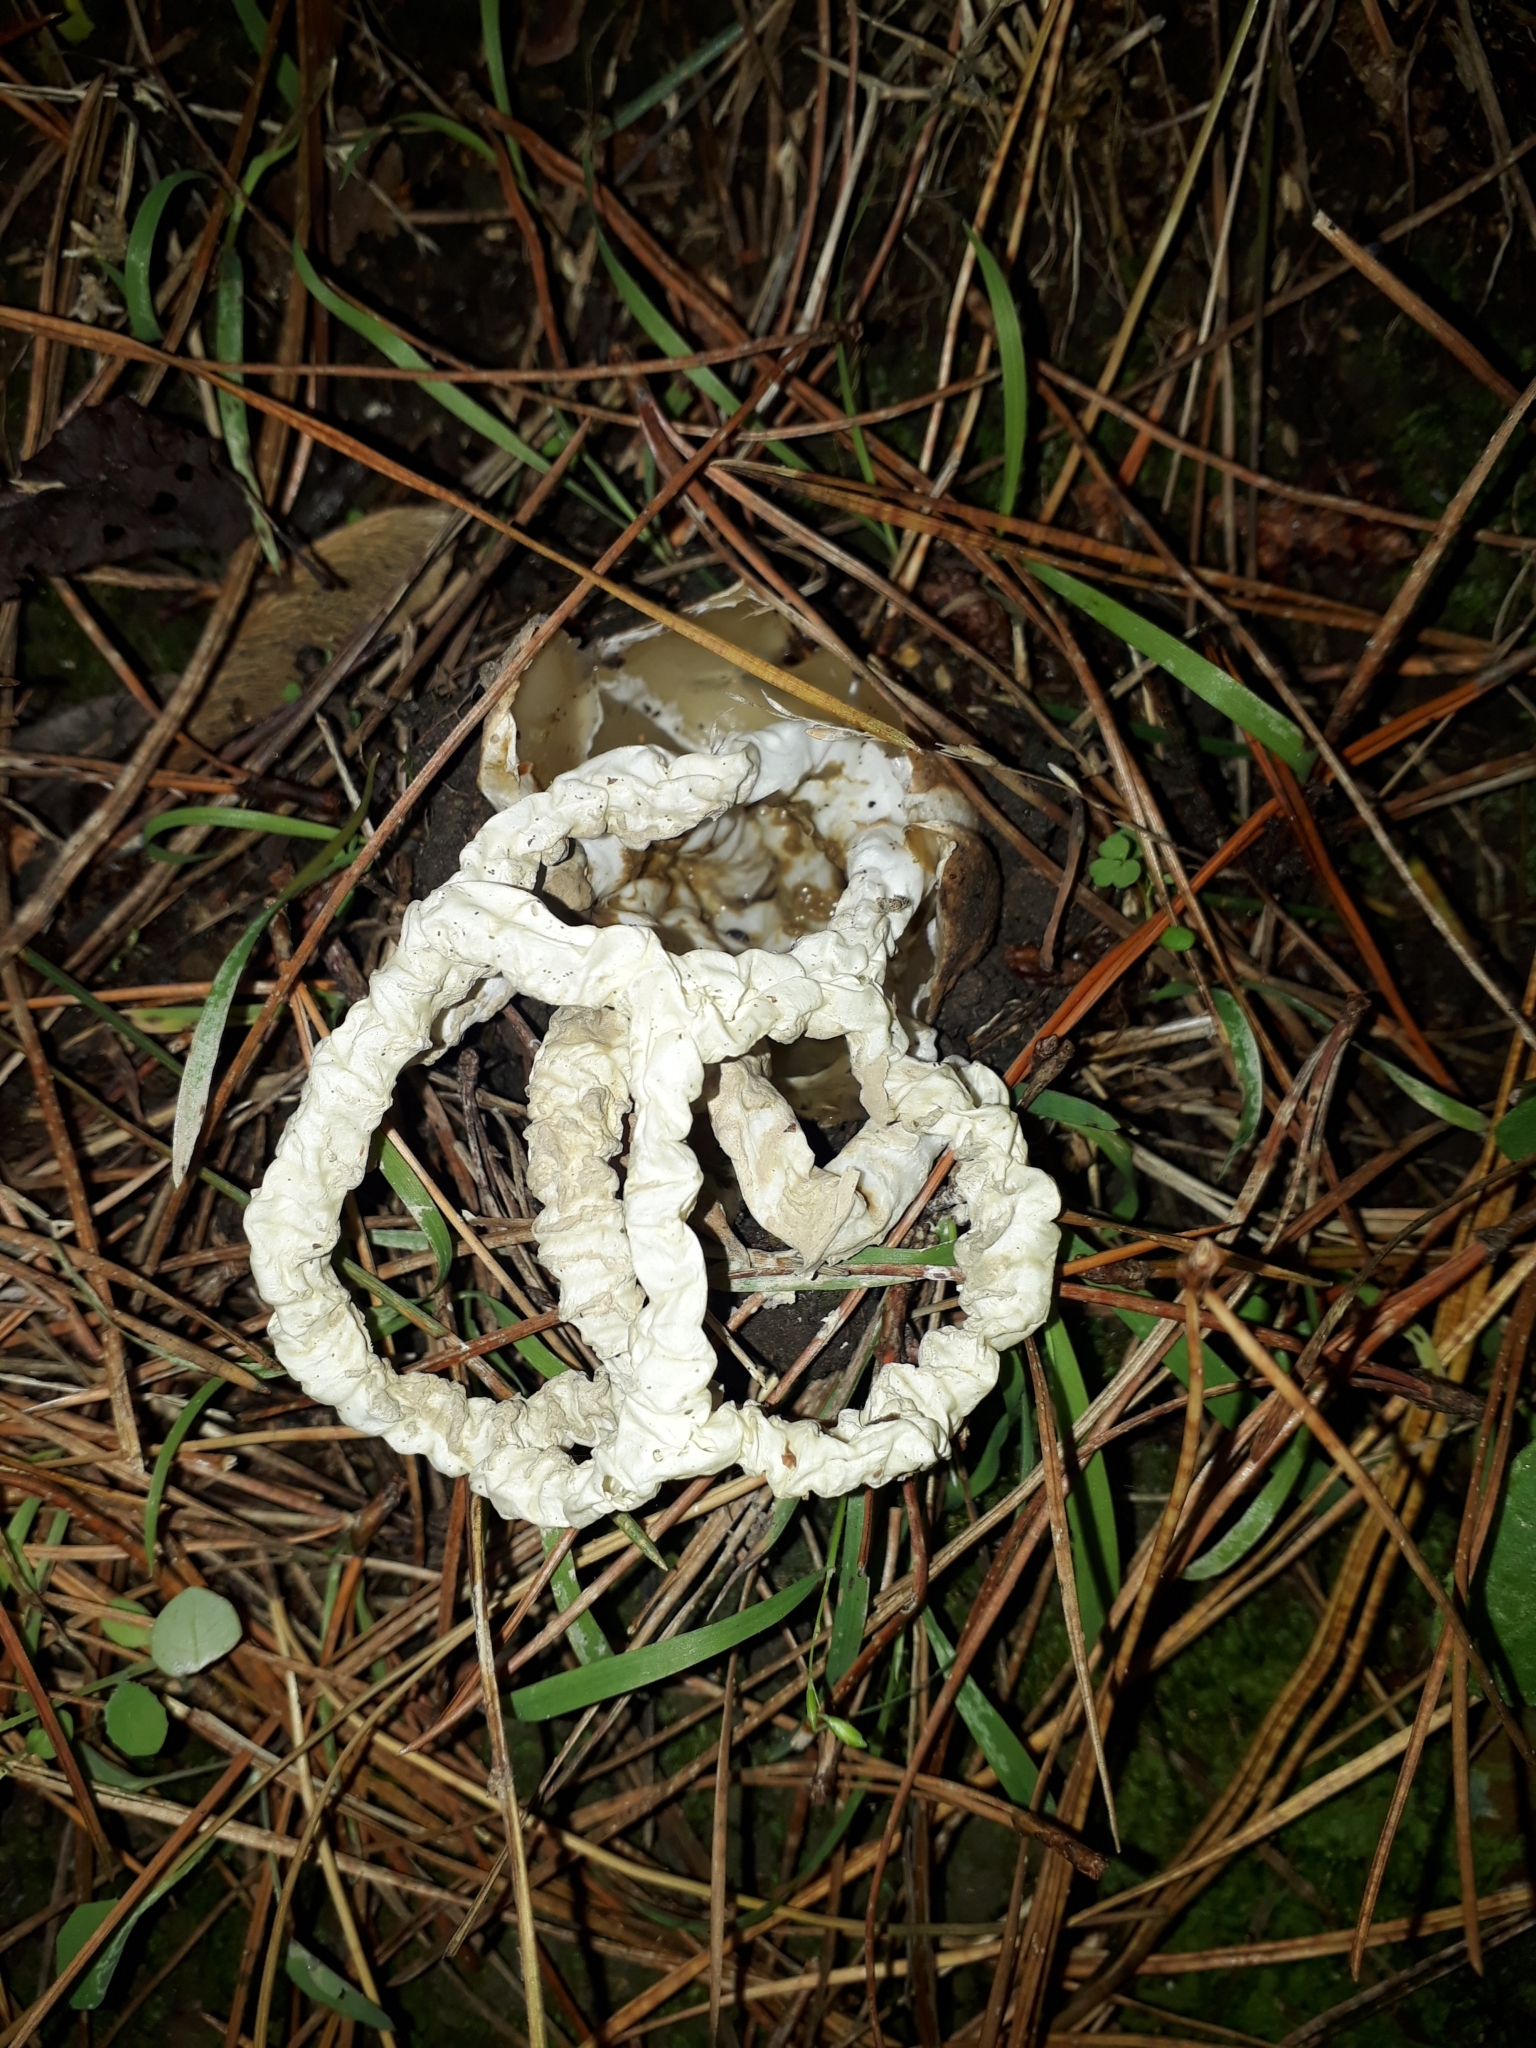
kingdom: Fungi
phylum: Basidiomycota
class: Agaricomycetes
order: Phallales
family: Phallaceae
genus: Ileodictyon
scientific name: Ileodictyon cibarium
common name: Basket fungus
